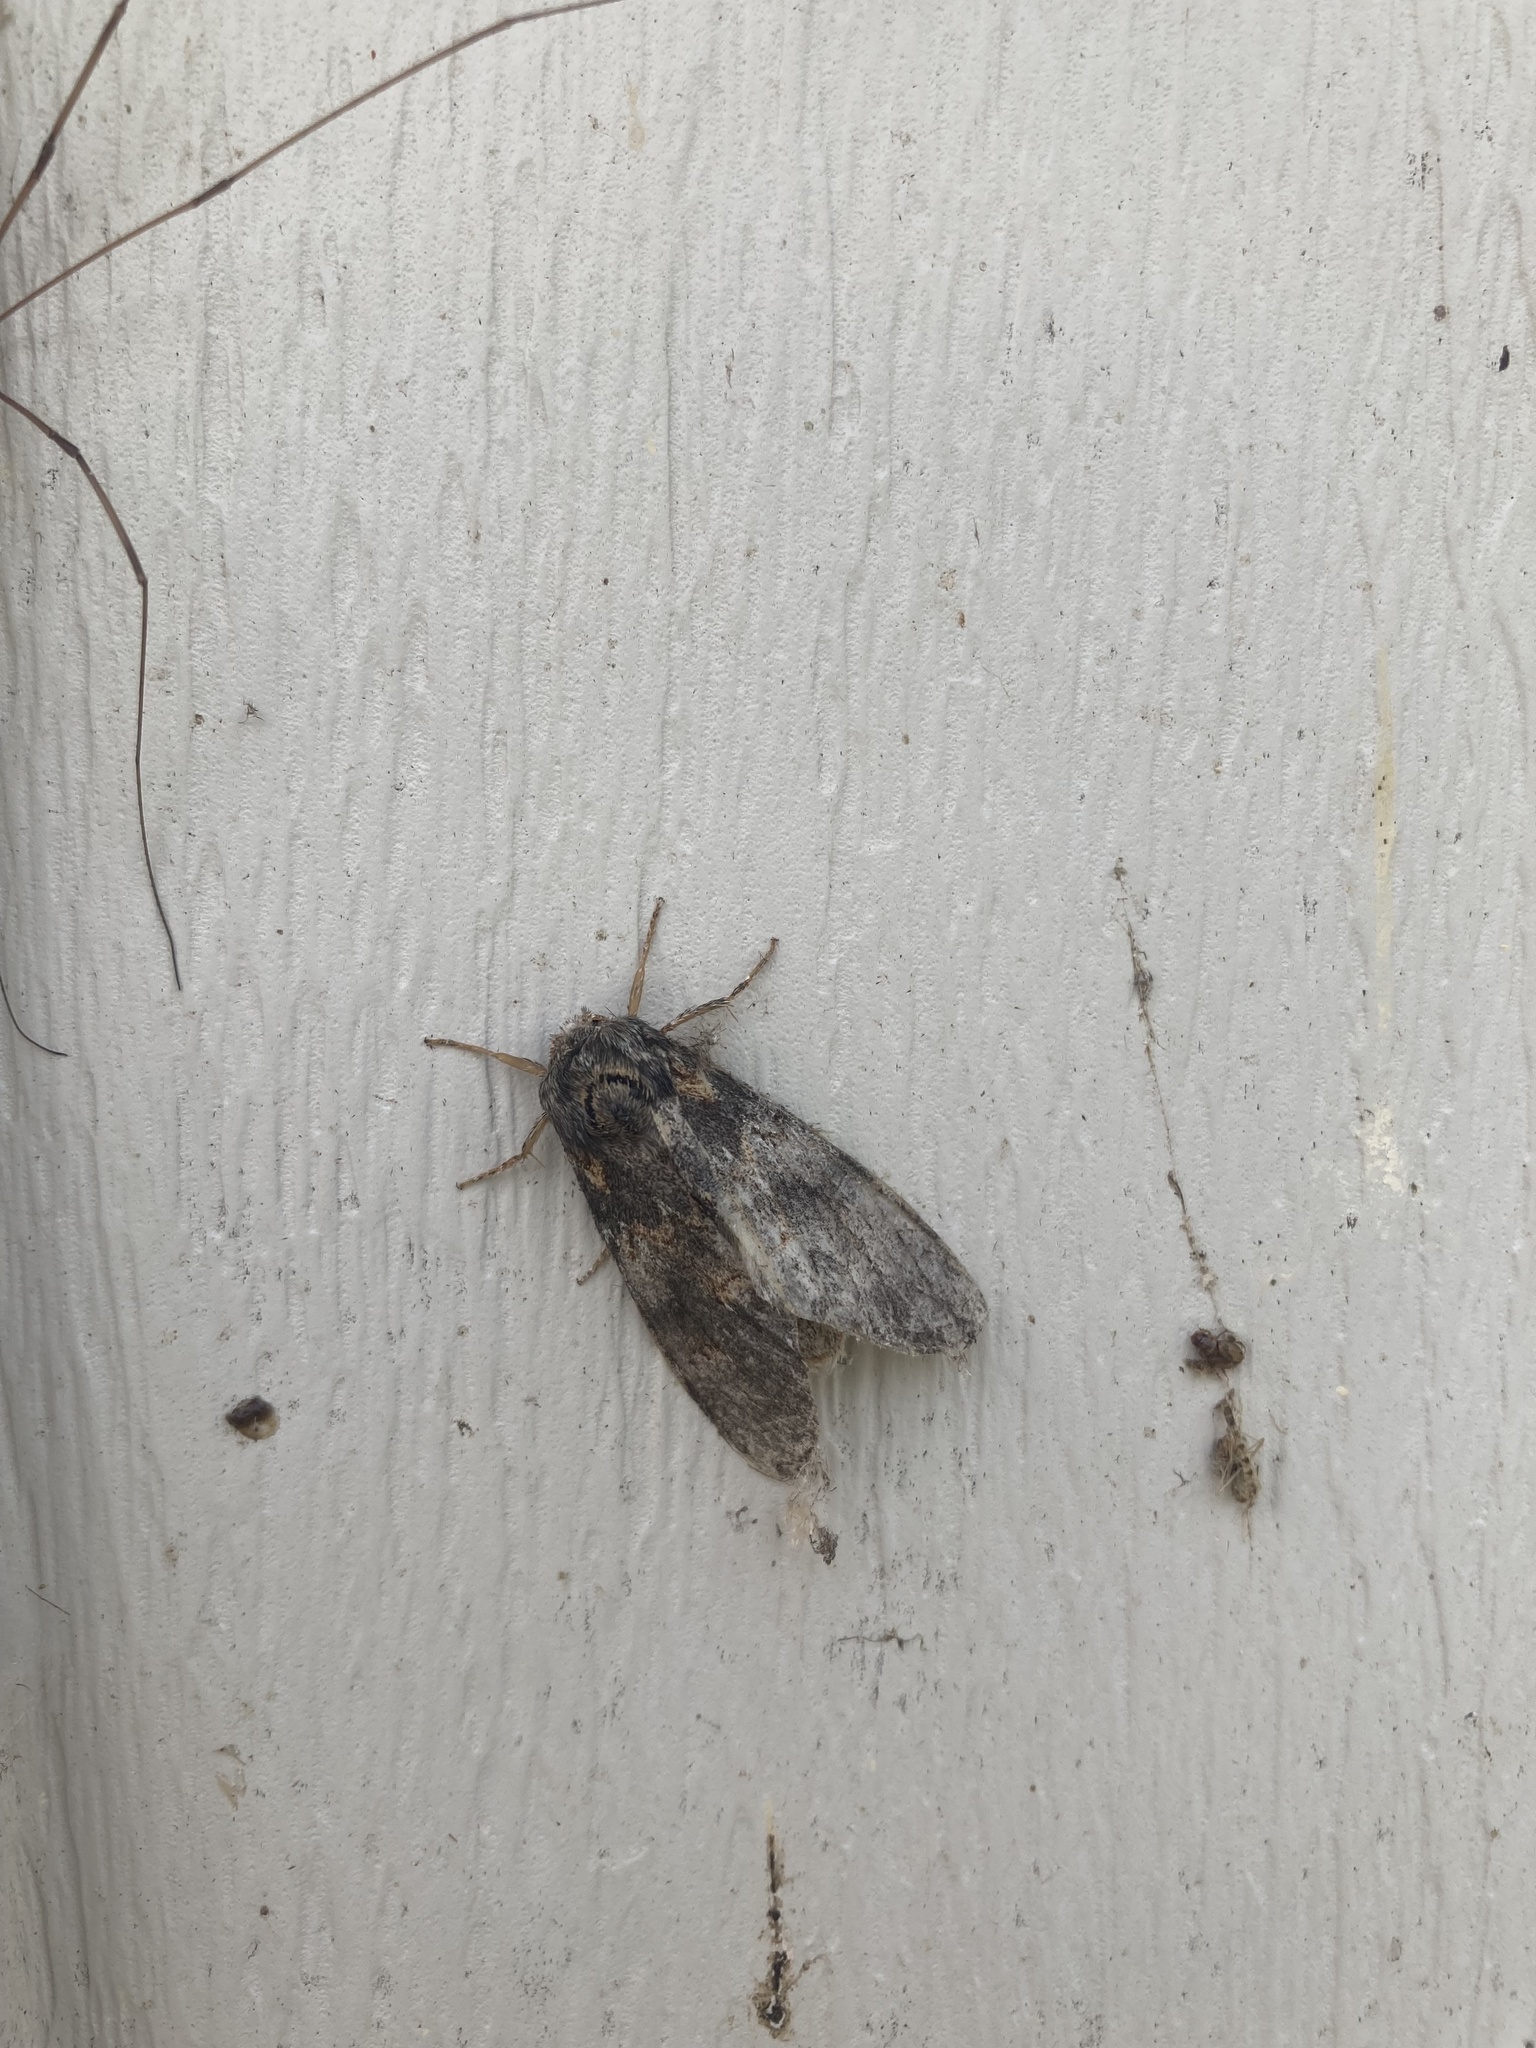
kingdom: Animalia
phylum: Arthropoda
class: Insecta
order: Lepidoptera
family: Notodontidae
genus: Peridea
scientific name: Peridea angulosa
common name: Angulose prominent
